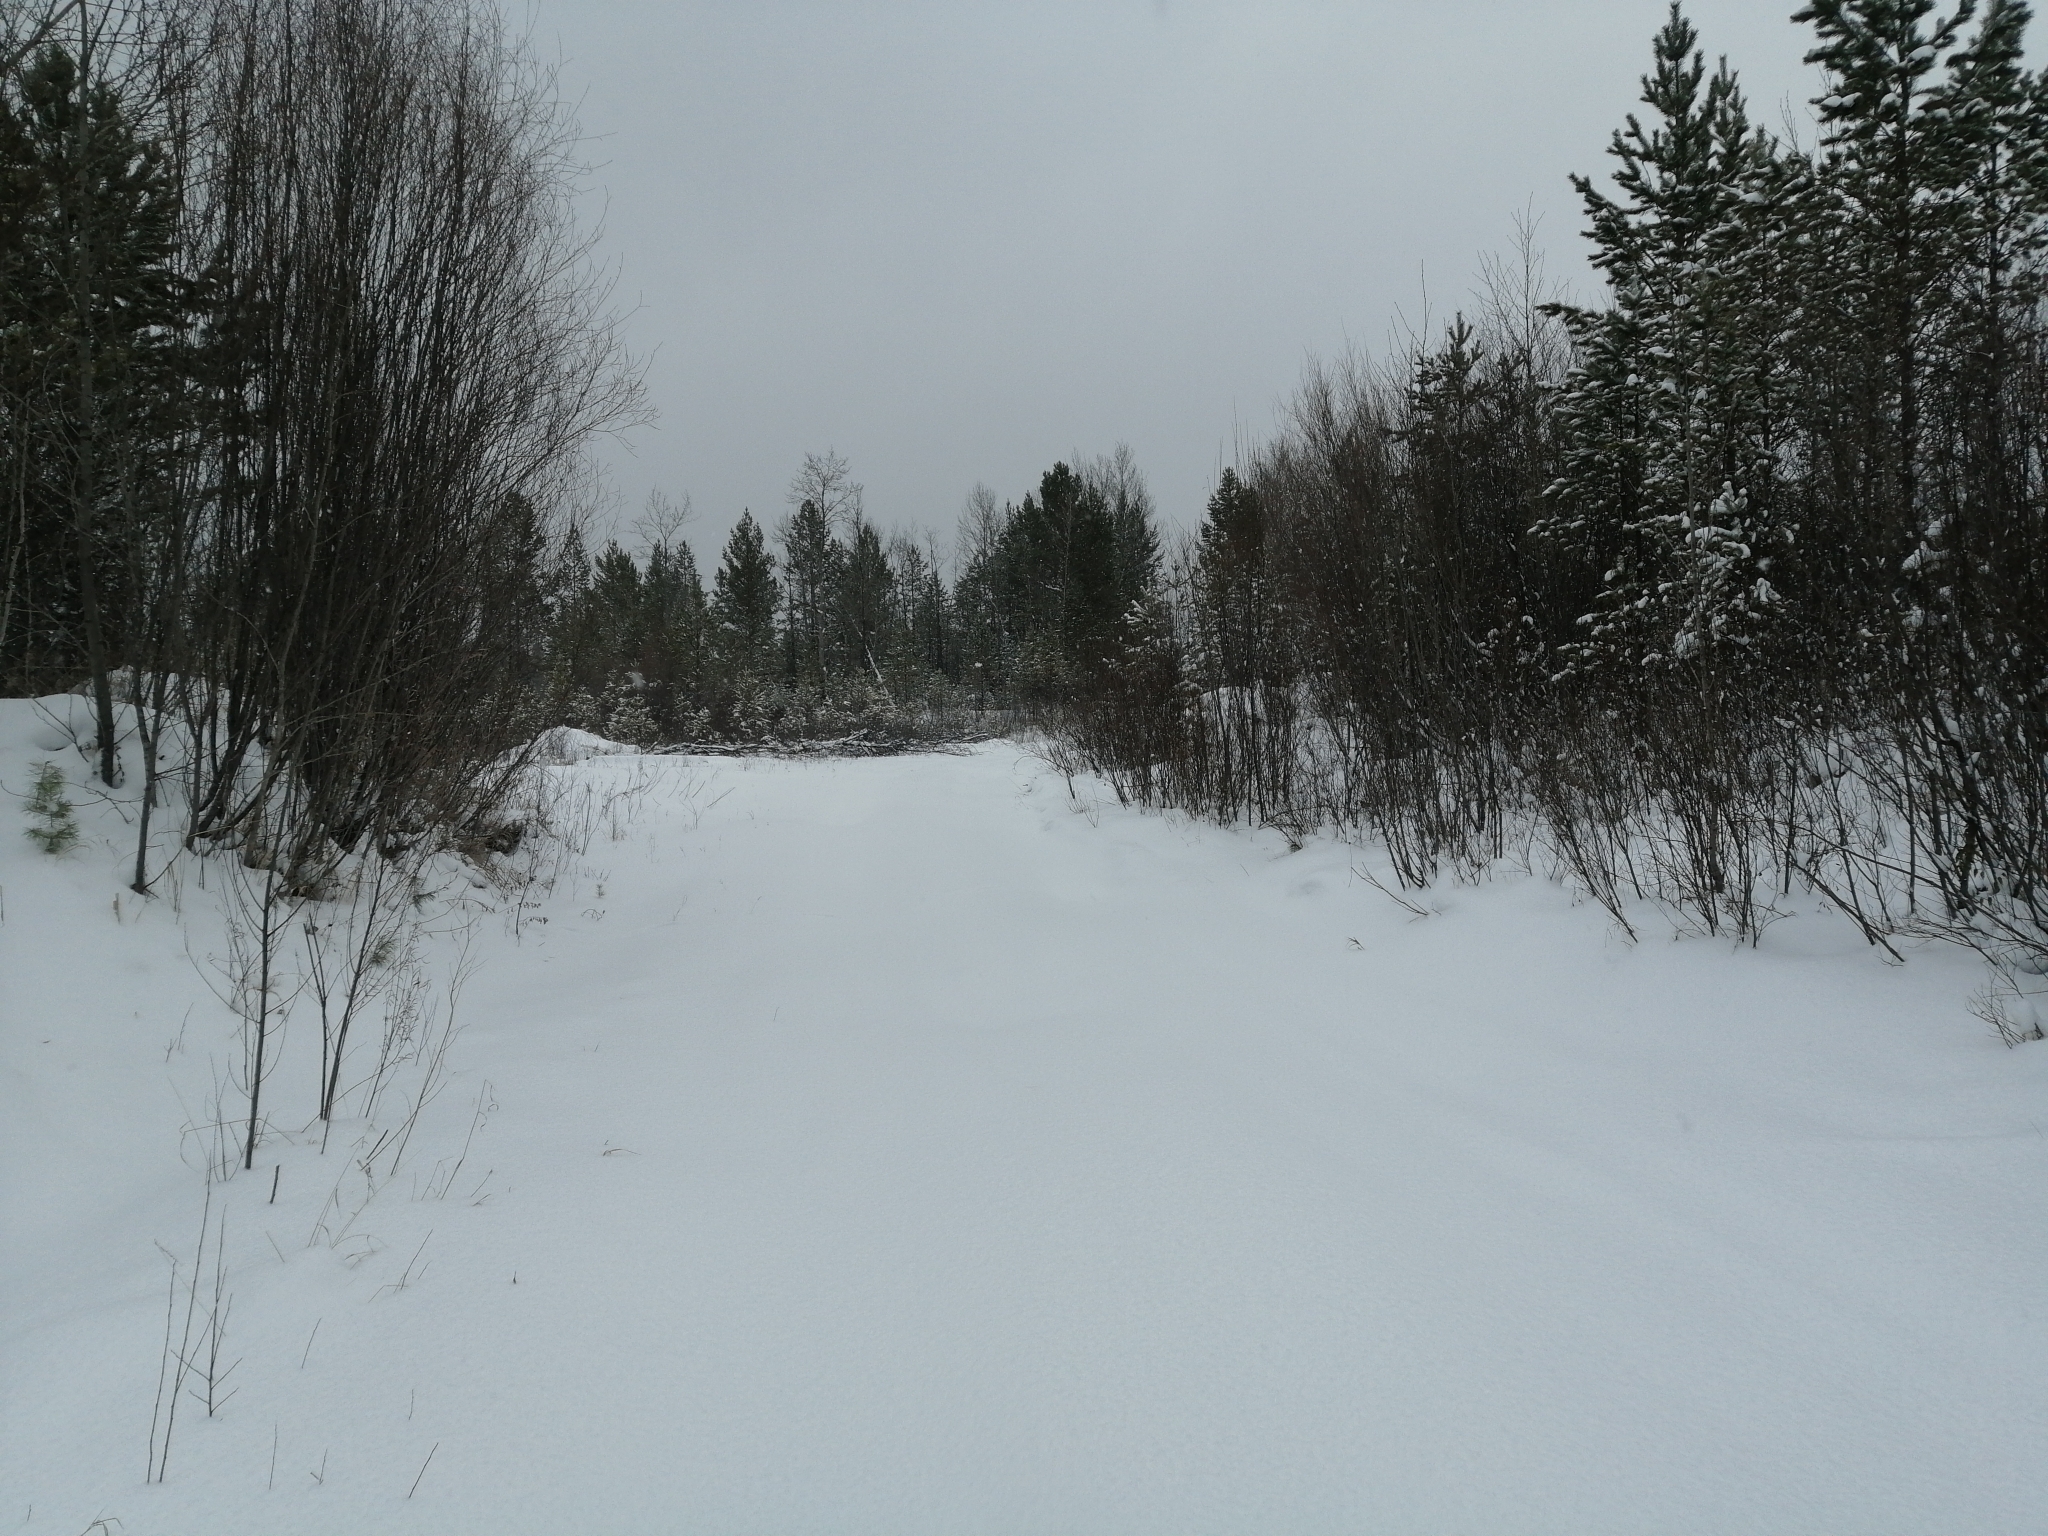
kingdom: Plantae
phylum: Tracheophyta
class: Pinopsida
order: Pinales
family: Pinaceae
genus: Pinus
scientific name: Pinus sylvestris
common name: Scots pine
